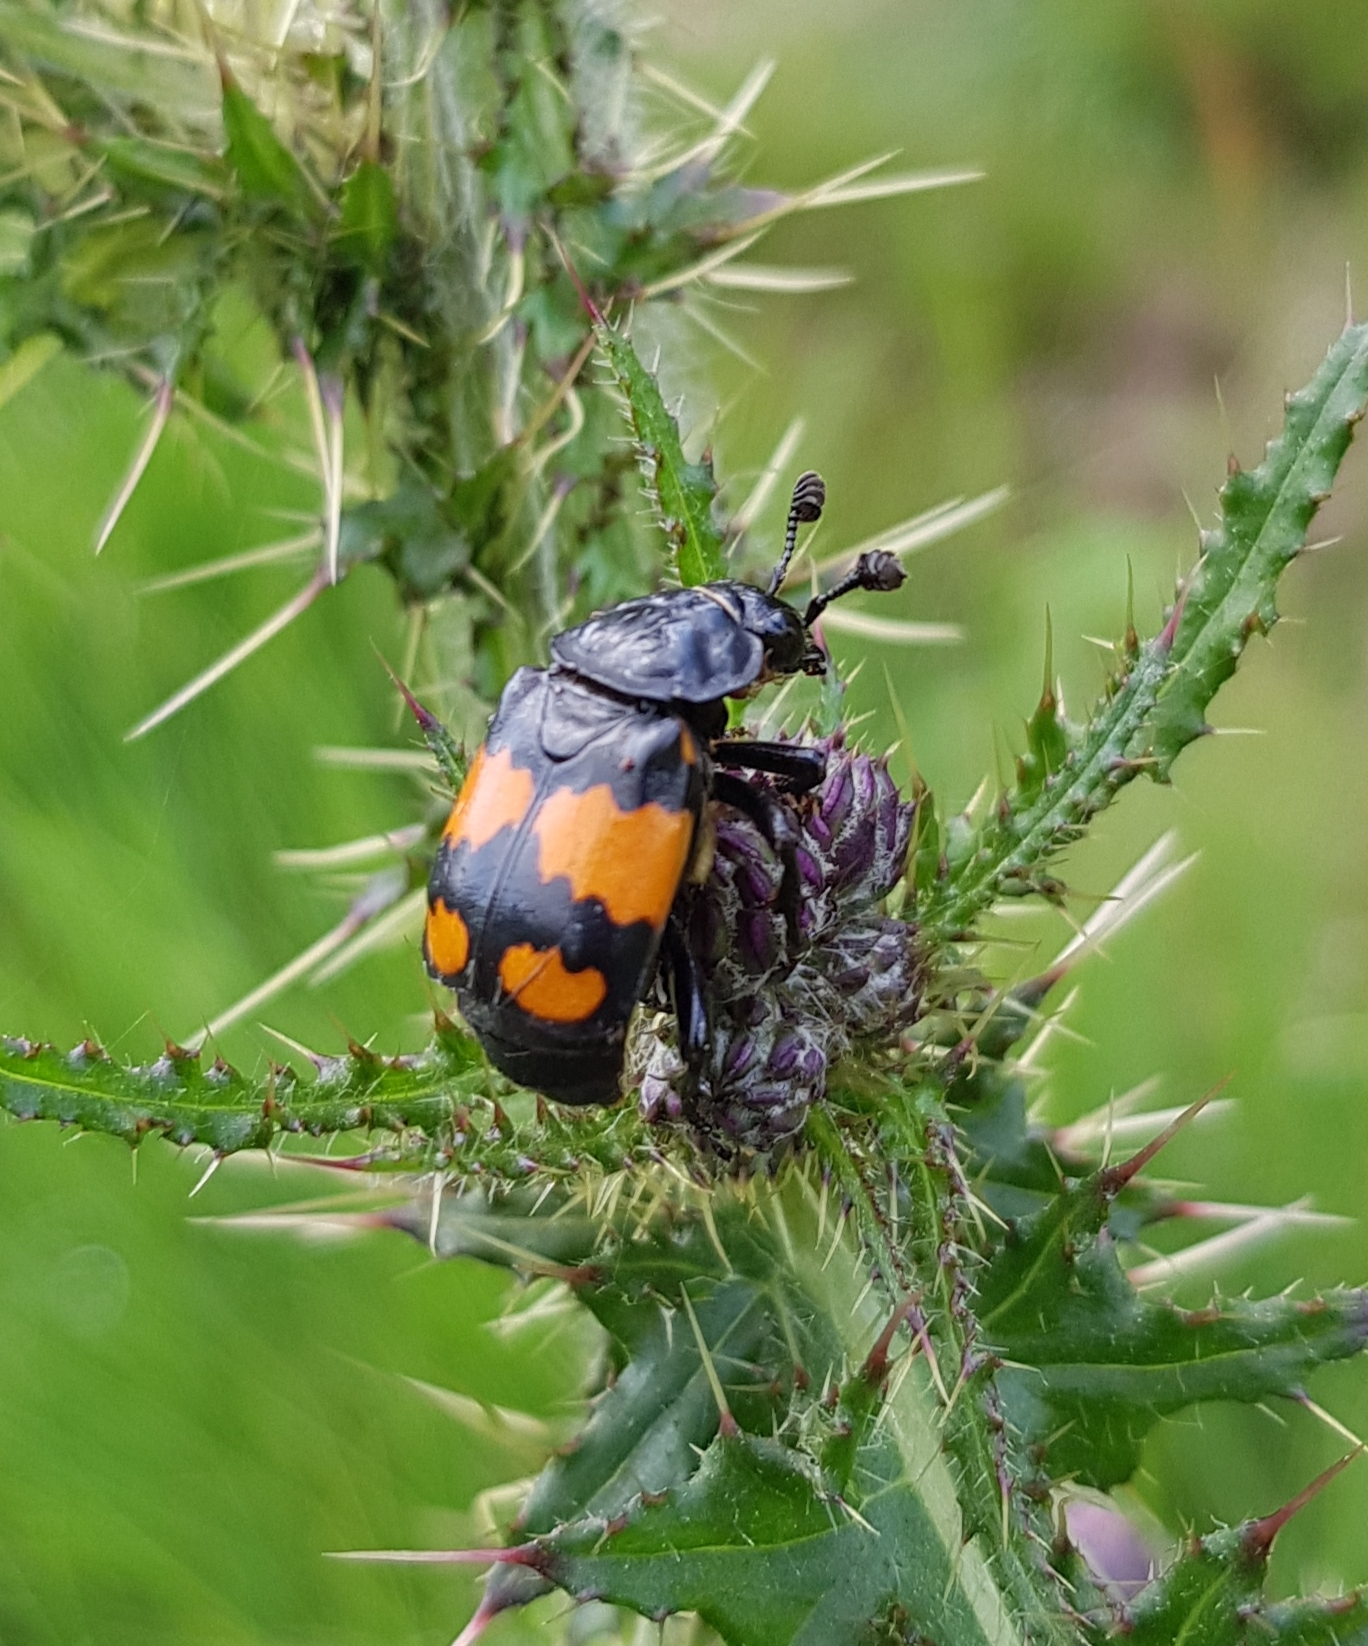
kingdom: Animalia
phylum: Arthropoda
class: Insecta
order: Coleoptera
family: Staphylinidae
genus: Nicrophorus
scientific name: Nicrophorus vespilloides
